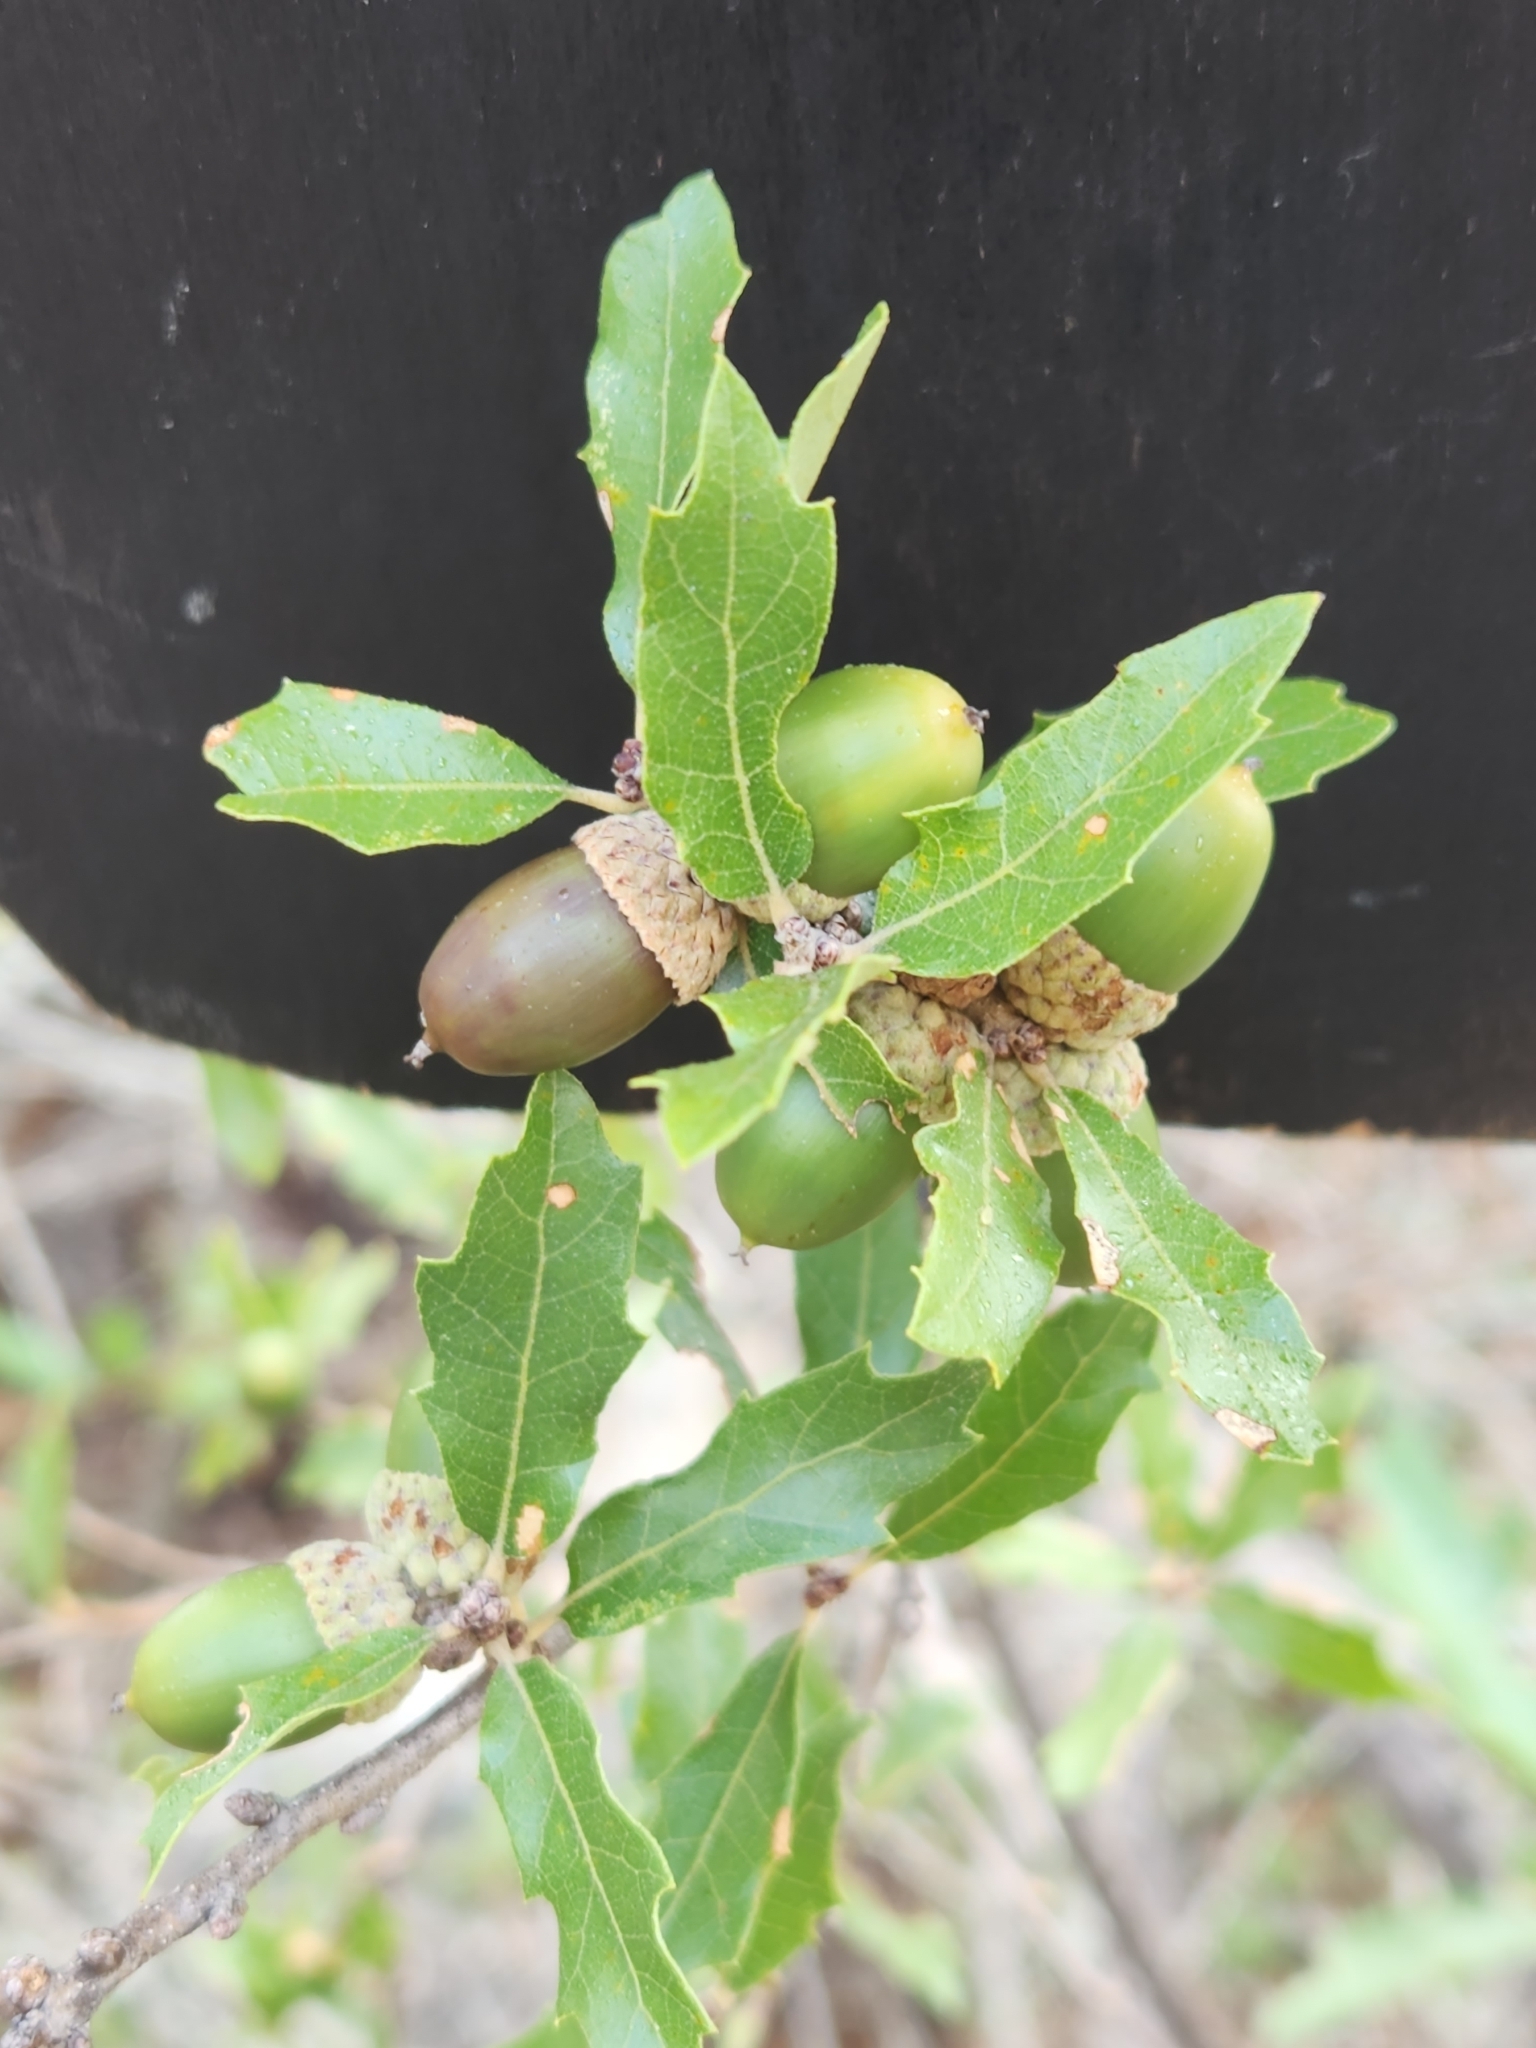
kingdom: Plantae
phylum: Tracheophyta
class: Magnoliopsida
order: Fagales
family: Fagaceae
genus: Quercus
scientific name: Quercus vaseyana
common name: Sandpaper oak
